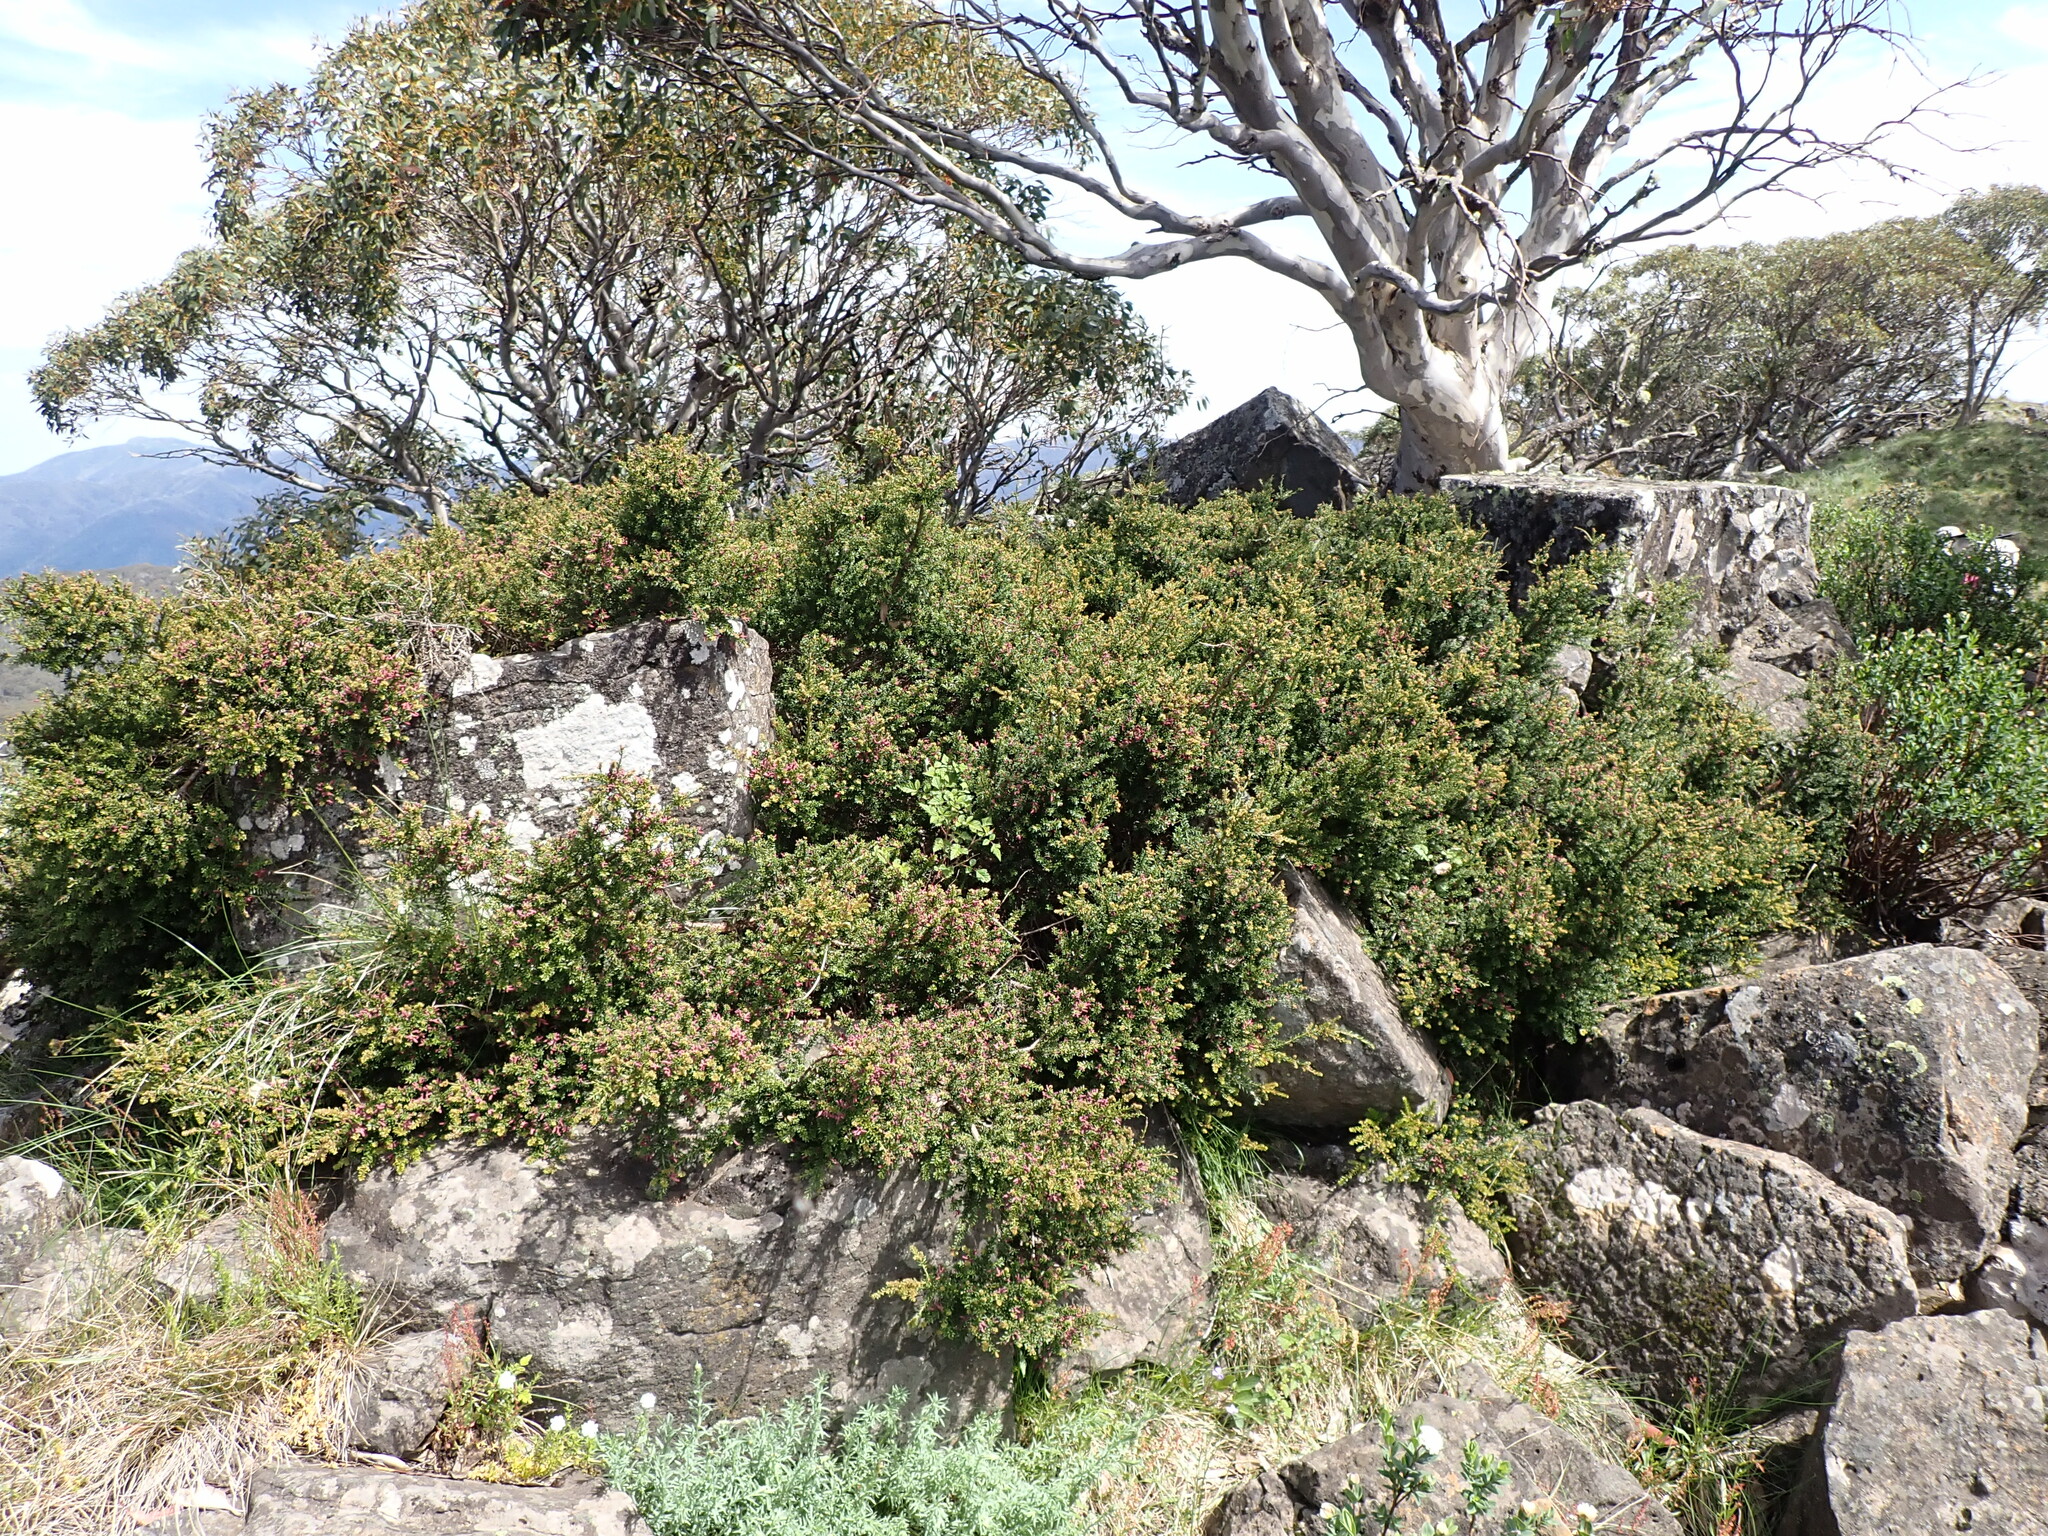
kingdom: Plantae
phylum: Tracheophyta
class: Pinopsida
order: Pinales
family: Podocarpaceae
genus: Podocarpus
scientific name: Podocarpus lawrencei
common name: Mountain plum pine
